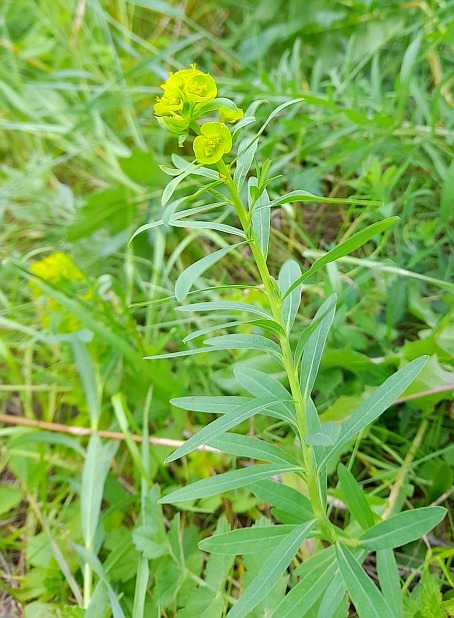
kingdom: Plantae
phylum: Tracheophyta
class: Magnoliopsida
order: Malpighiales
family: Euphorbiaceae
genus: Euphorbia
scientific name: Euphorbia virgata
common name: Leafy spurge
